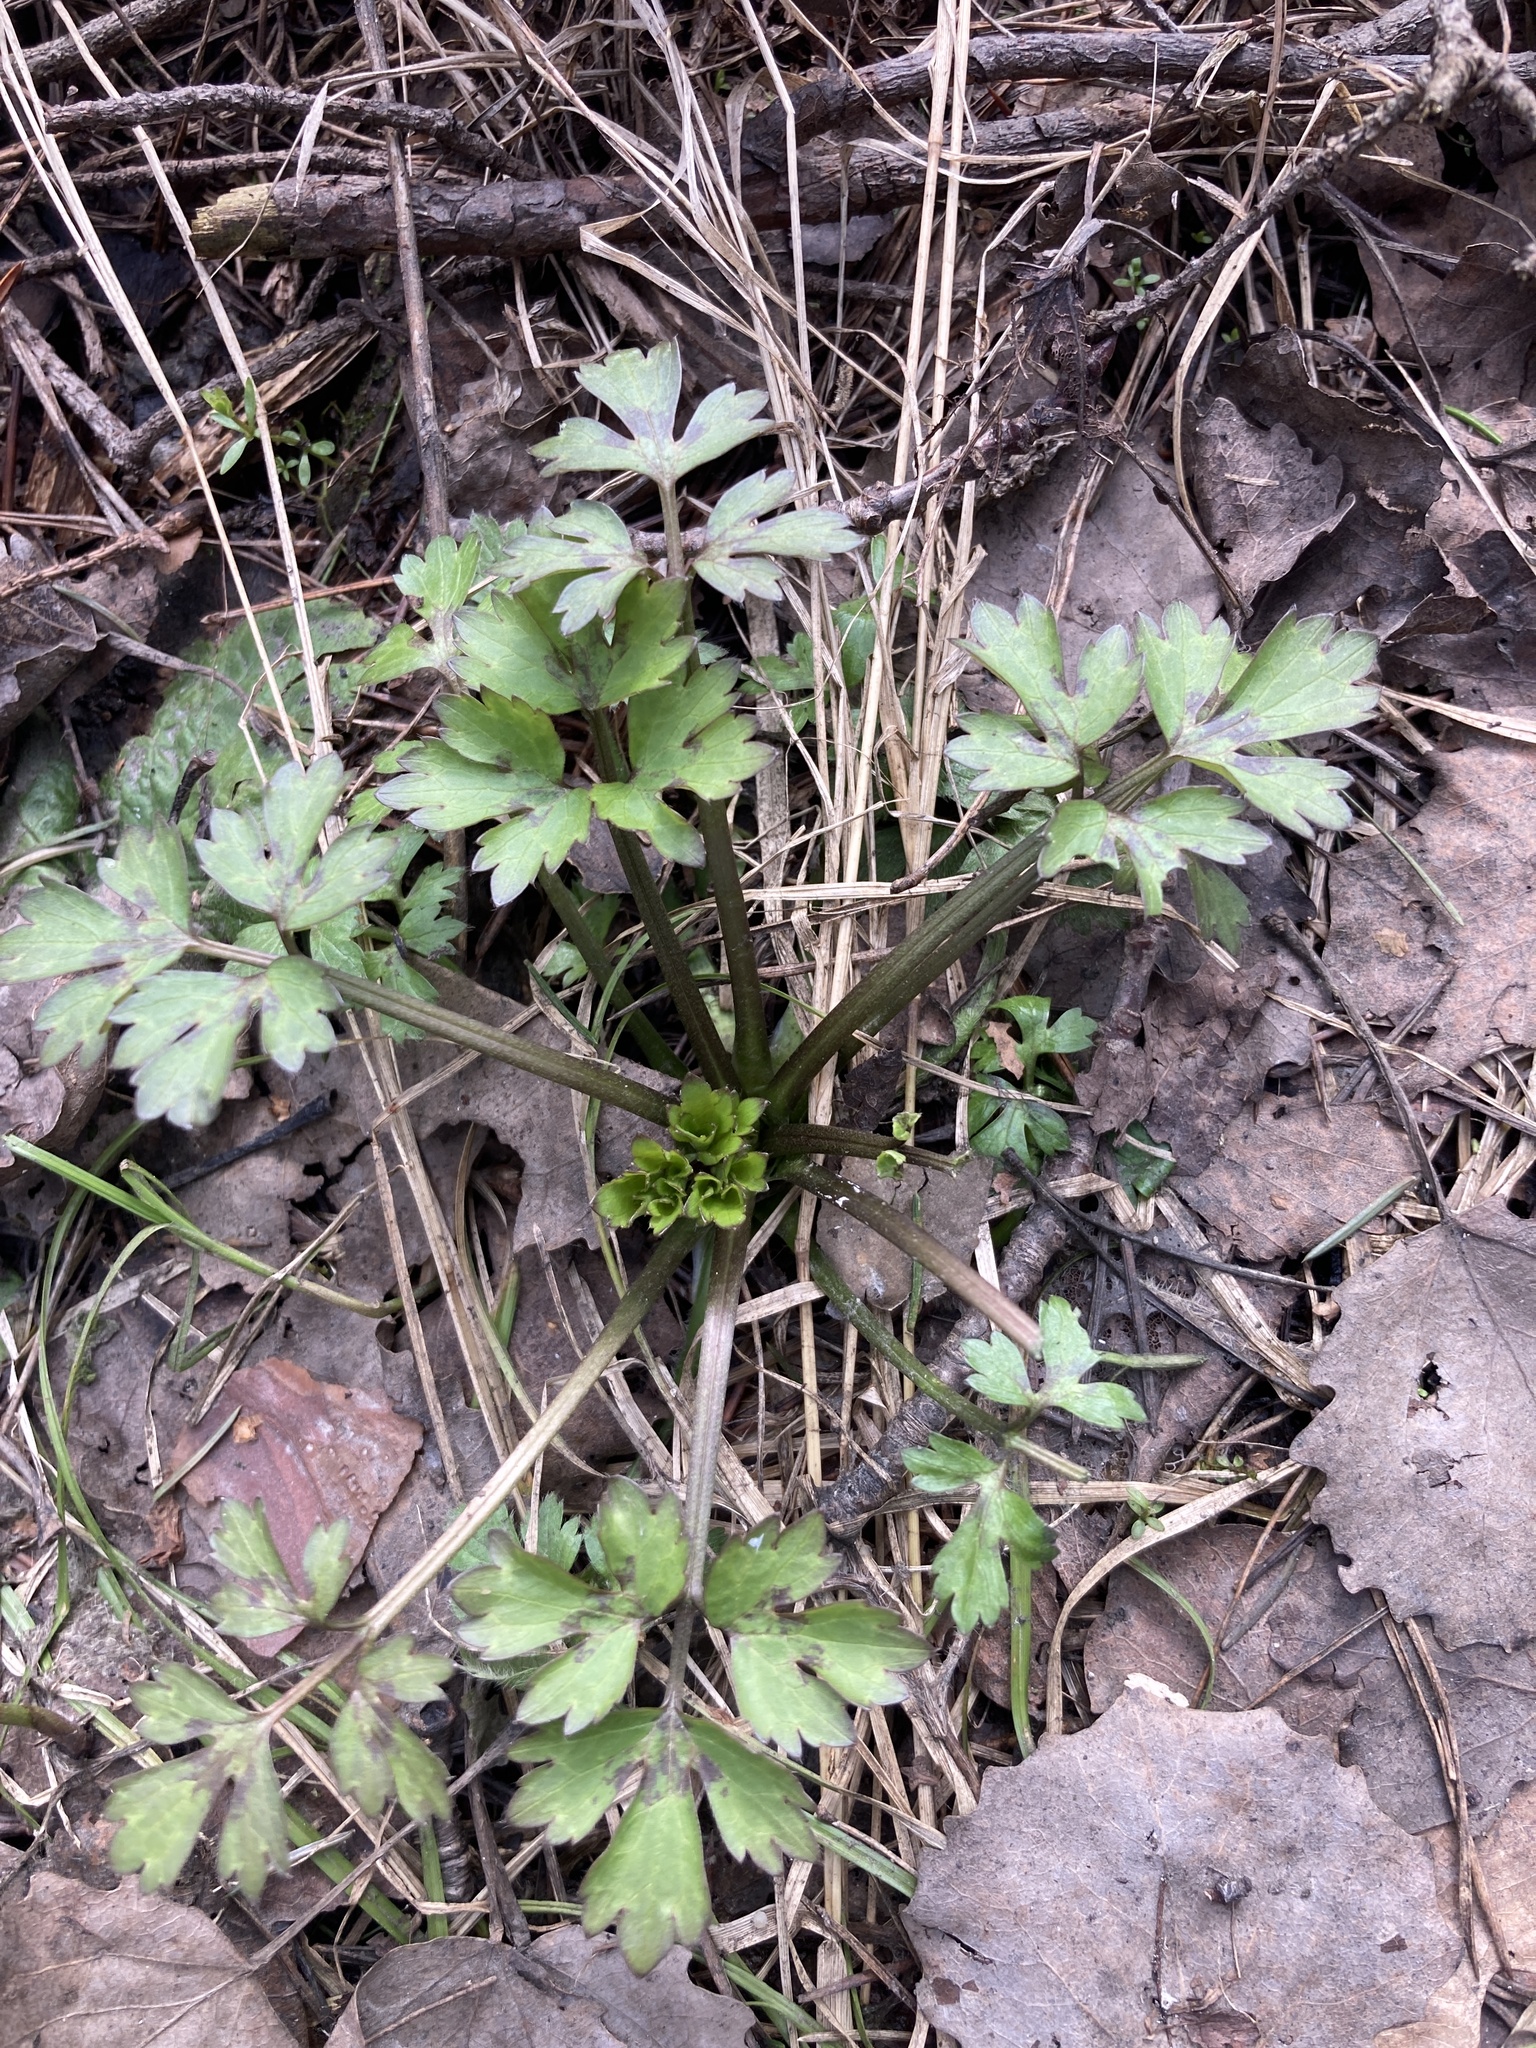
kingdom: Plantae
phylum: Tracheophyta
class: Magnoliopsida
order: Ranunculales
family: Ranunculaceae
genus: Ranunculus
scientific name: Ranunculus repens
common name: Creeping buttercup
